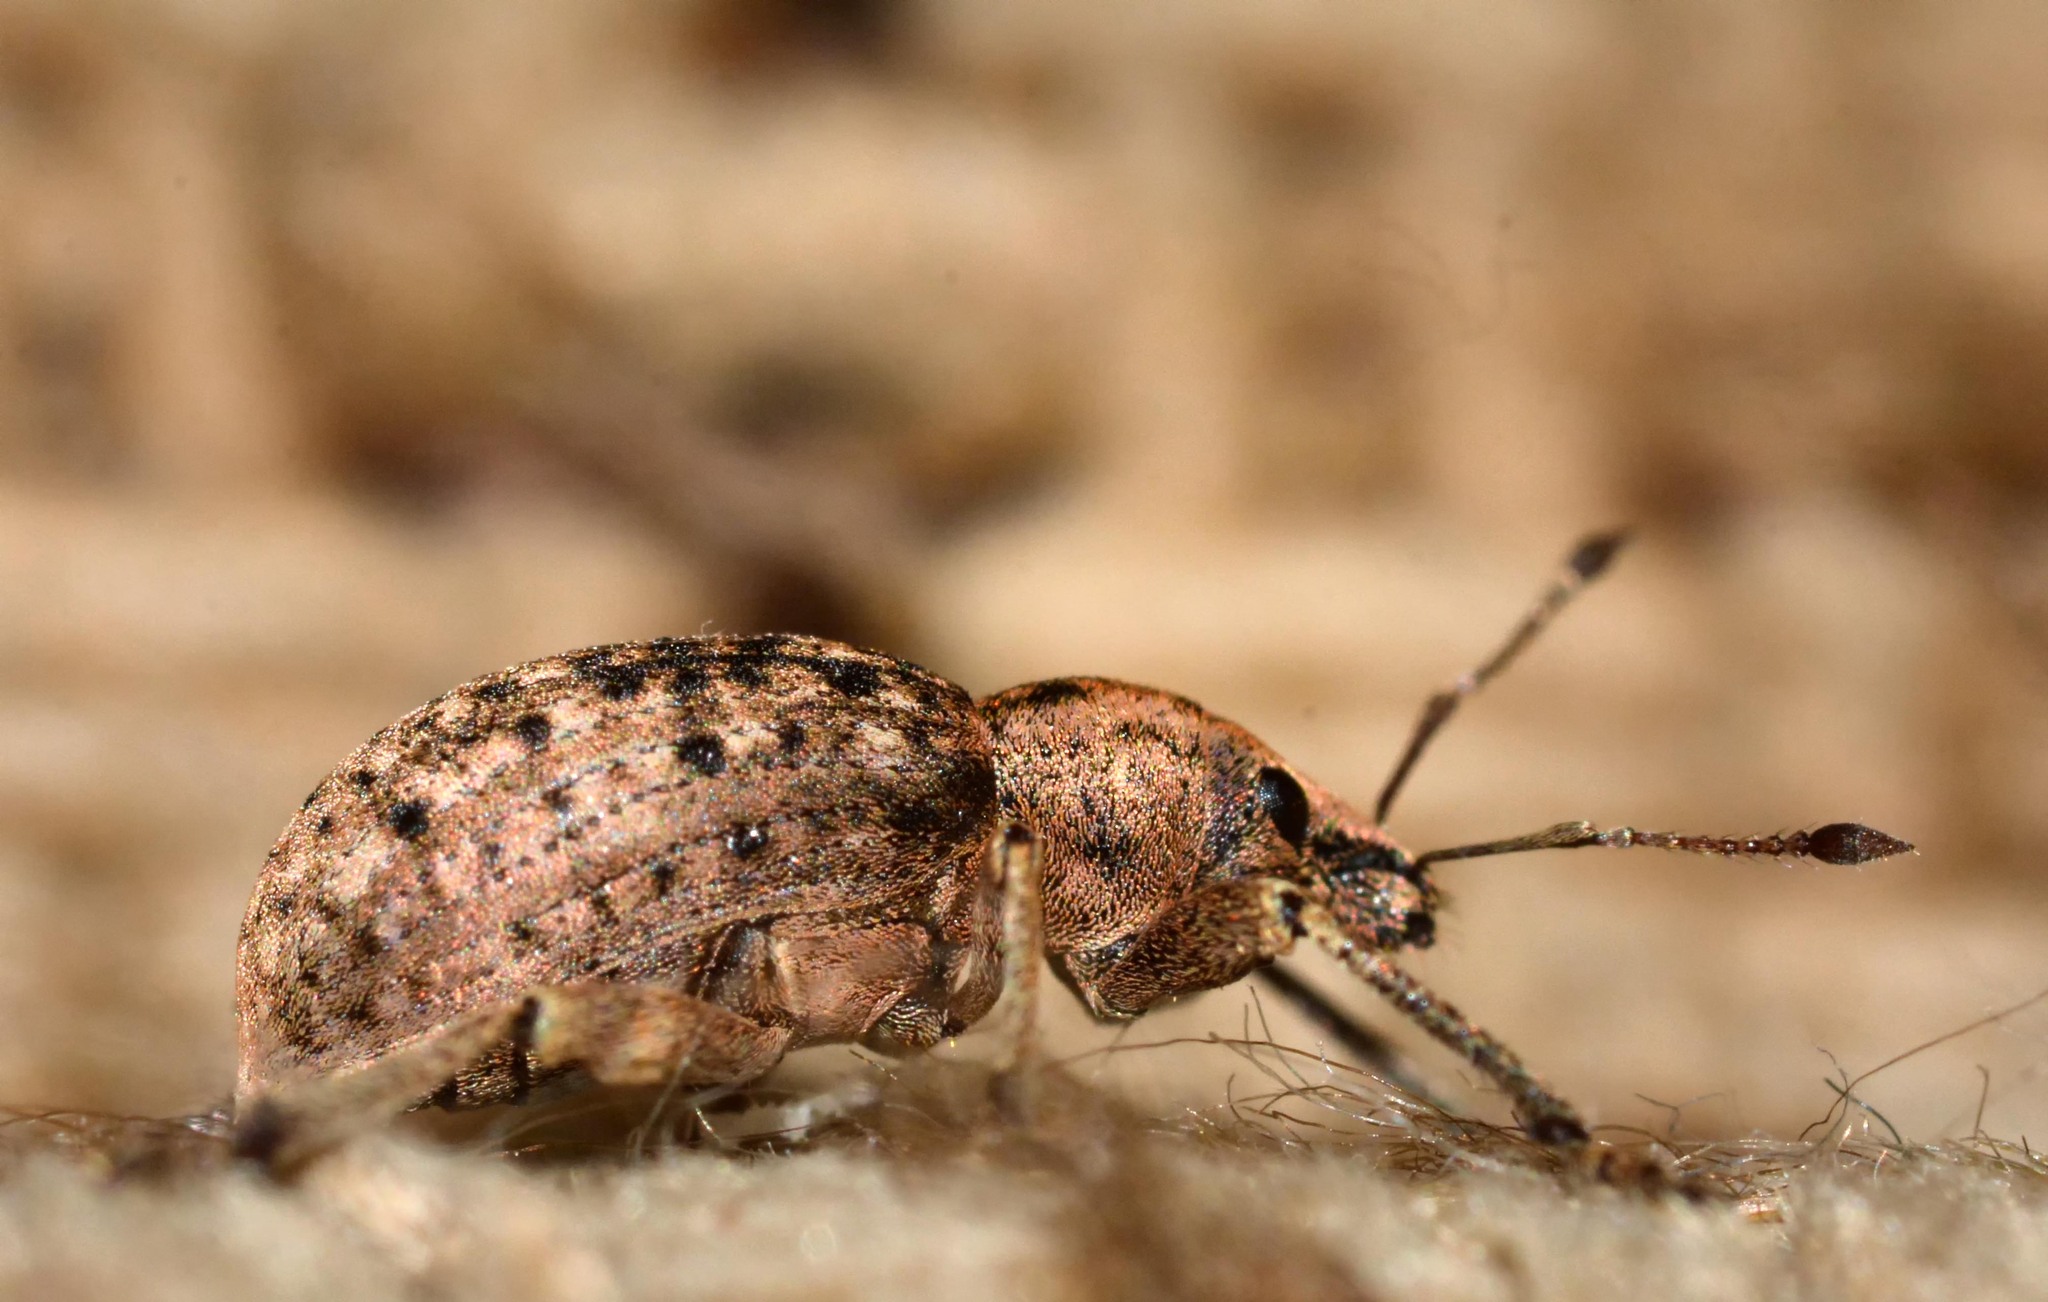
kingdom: Animalia
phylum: Arthropoda
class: Insecta
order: Coleoptera
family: Curculionidae
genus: Liophloeus
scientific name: Liophloeus tessulatus
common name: Weevil
